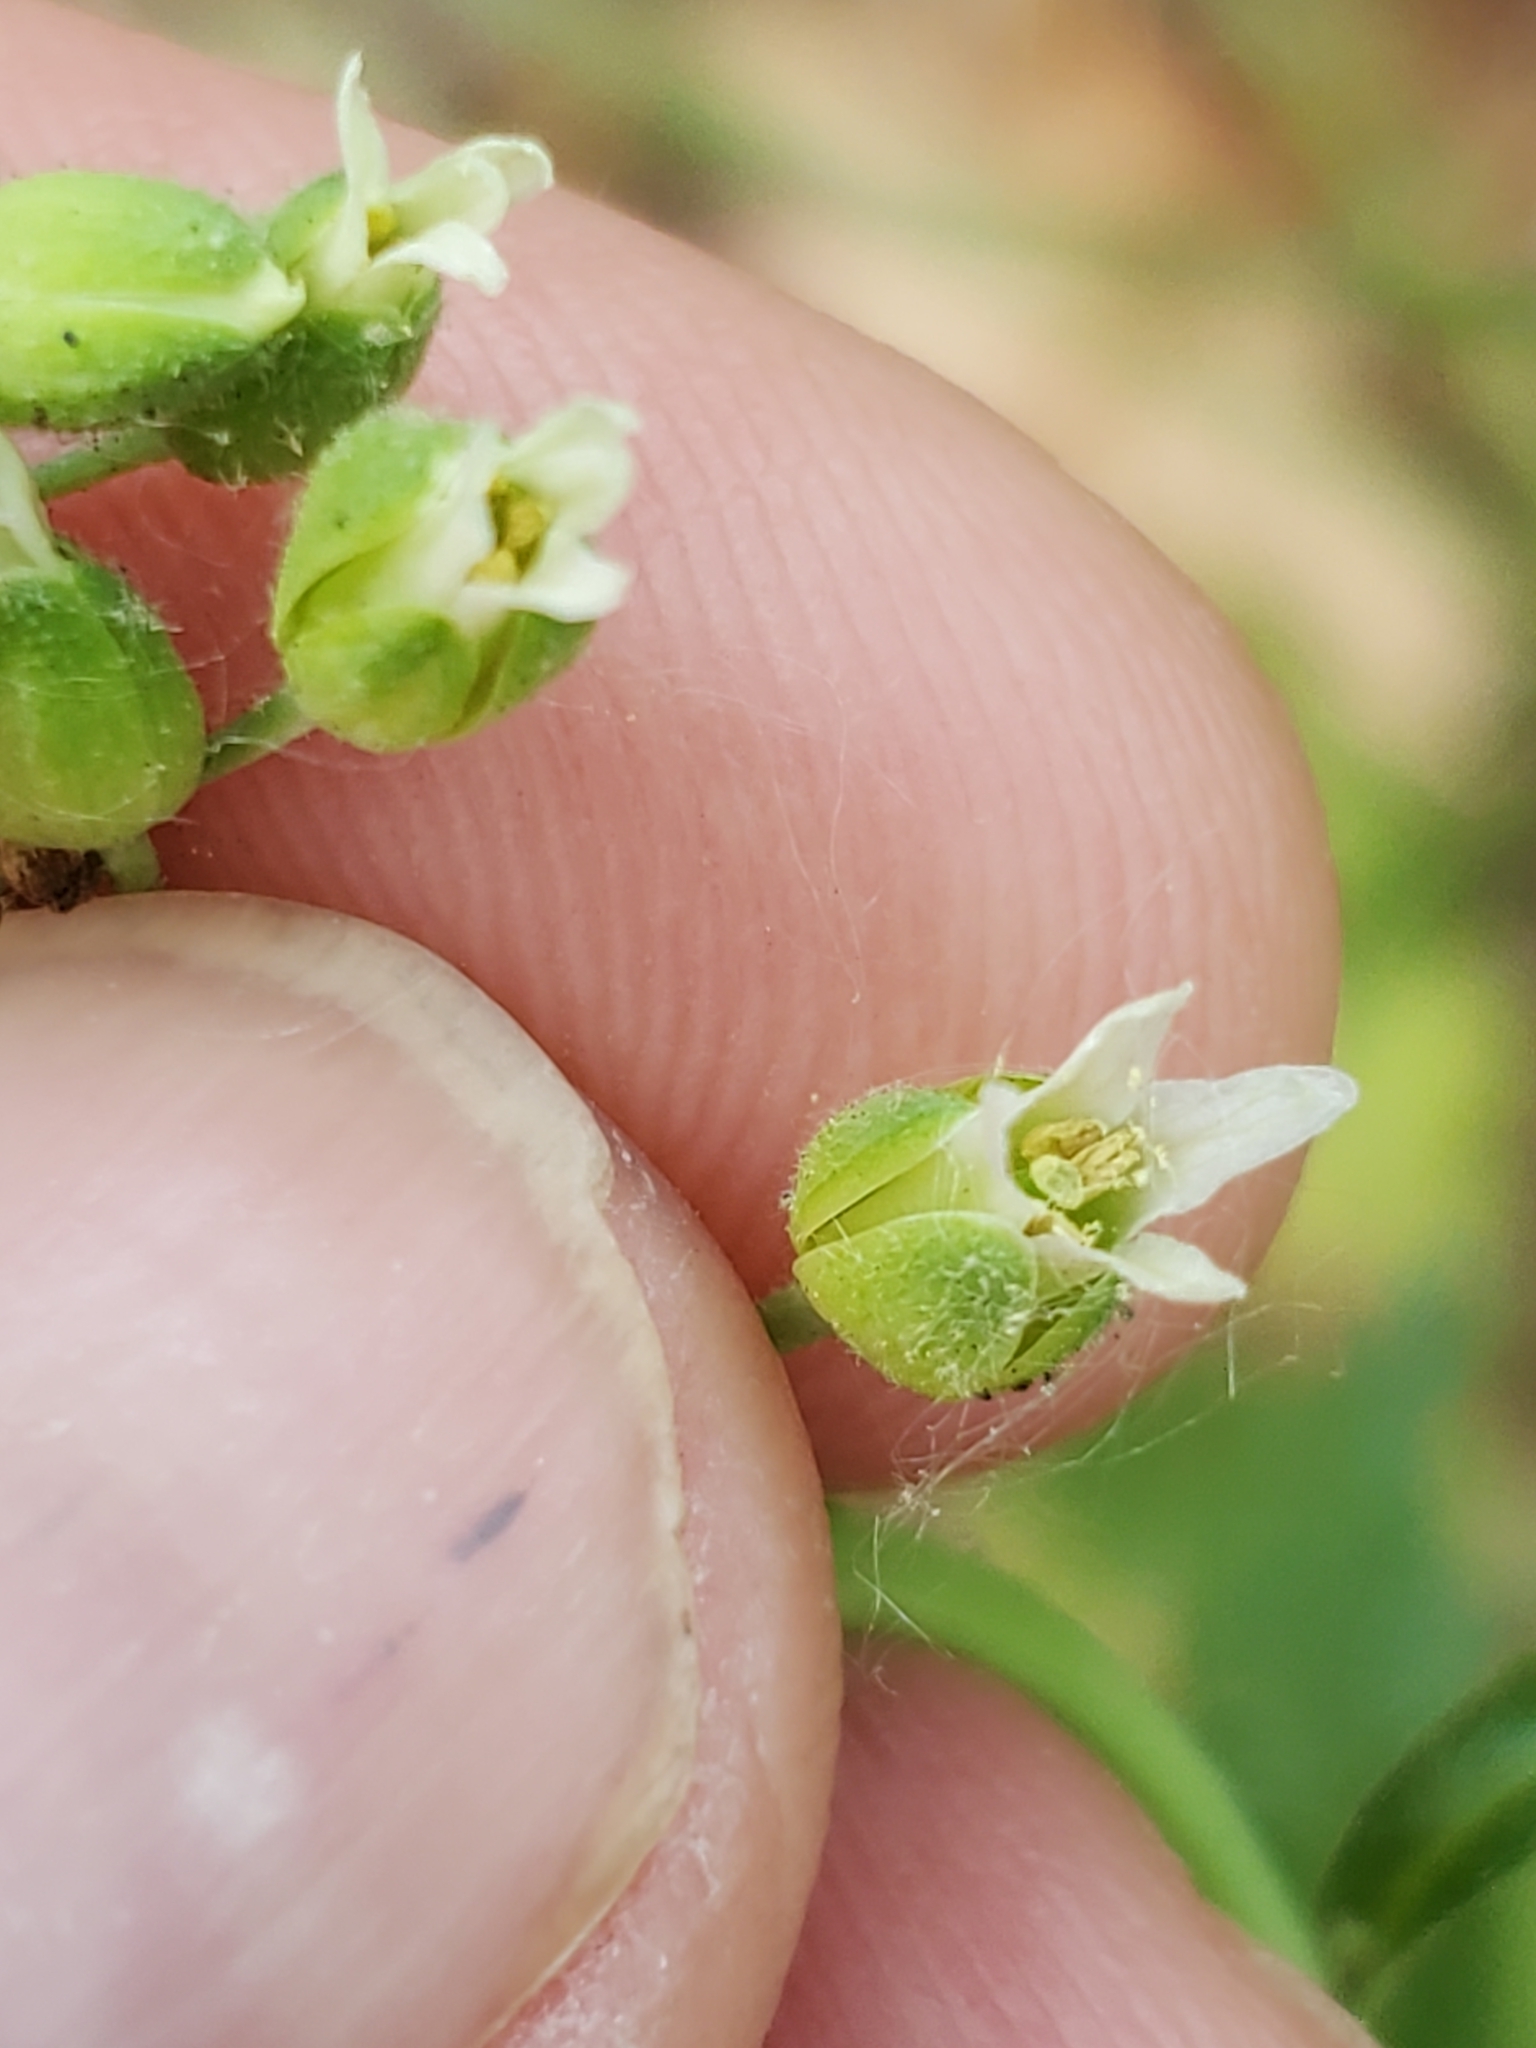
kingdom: Plantae
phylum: Tracheophyta
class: Magnoliopsida
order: Brassicales
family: Brassicaceae
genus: Borodinia
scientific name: Borodinia canadensis
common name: Sicklepod
